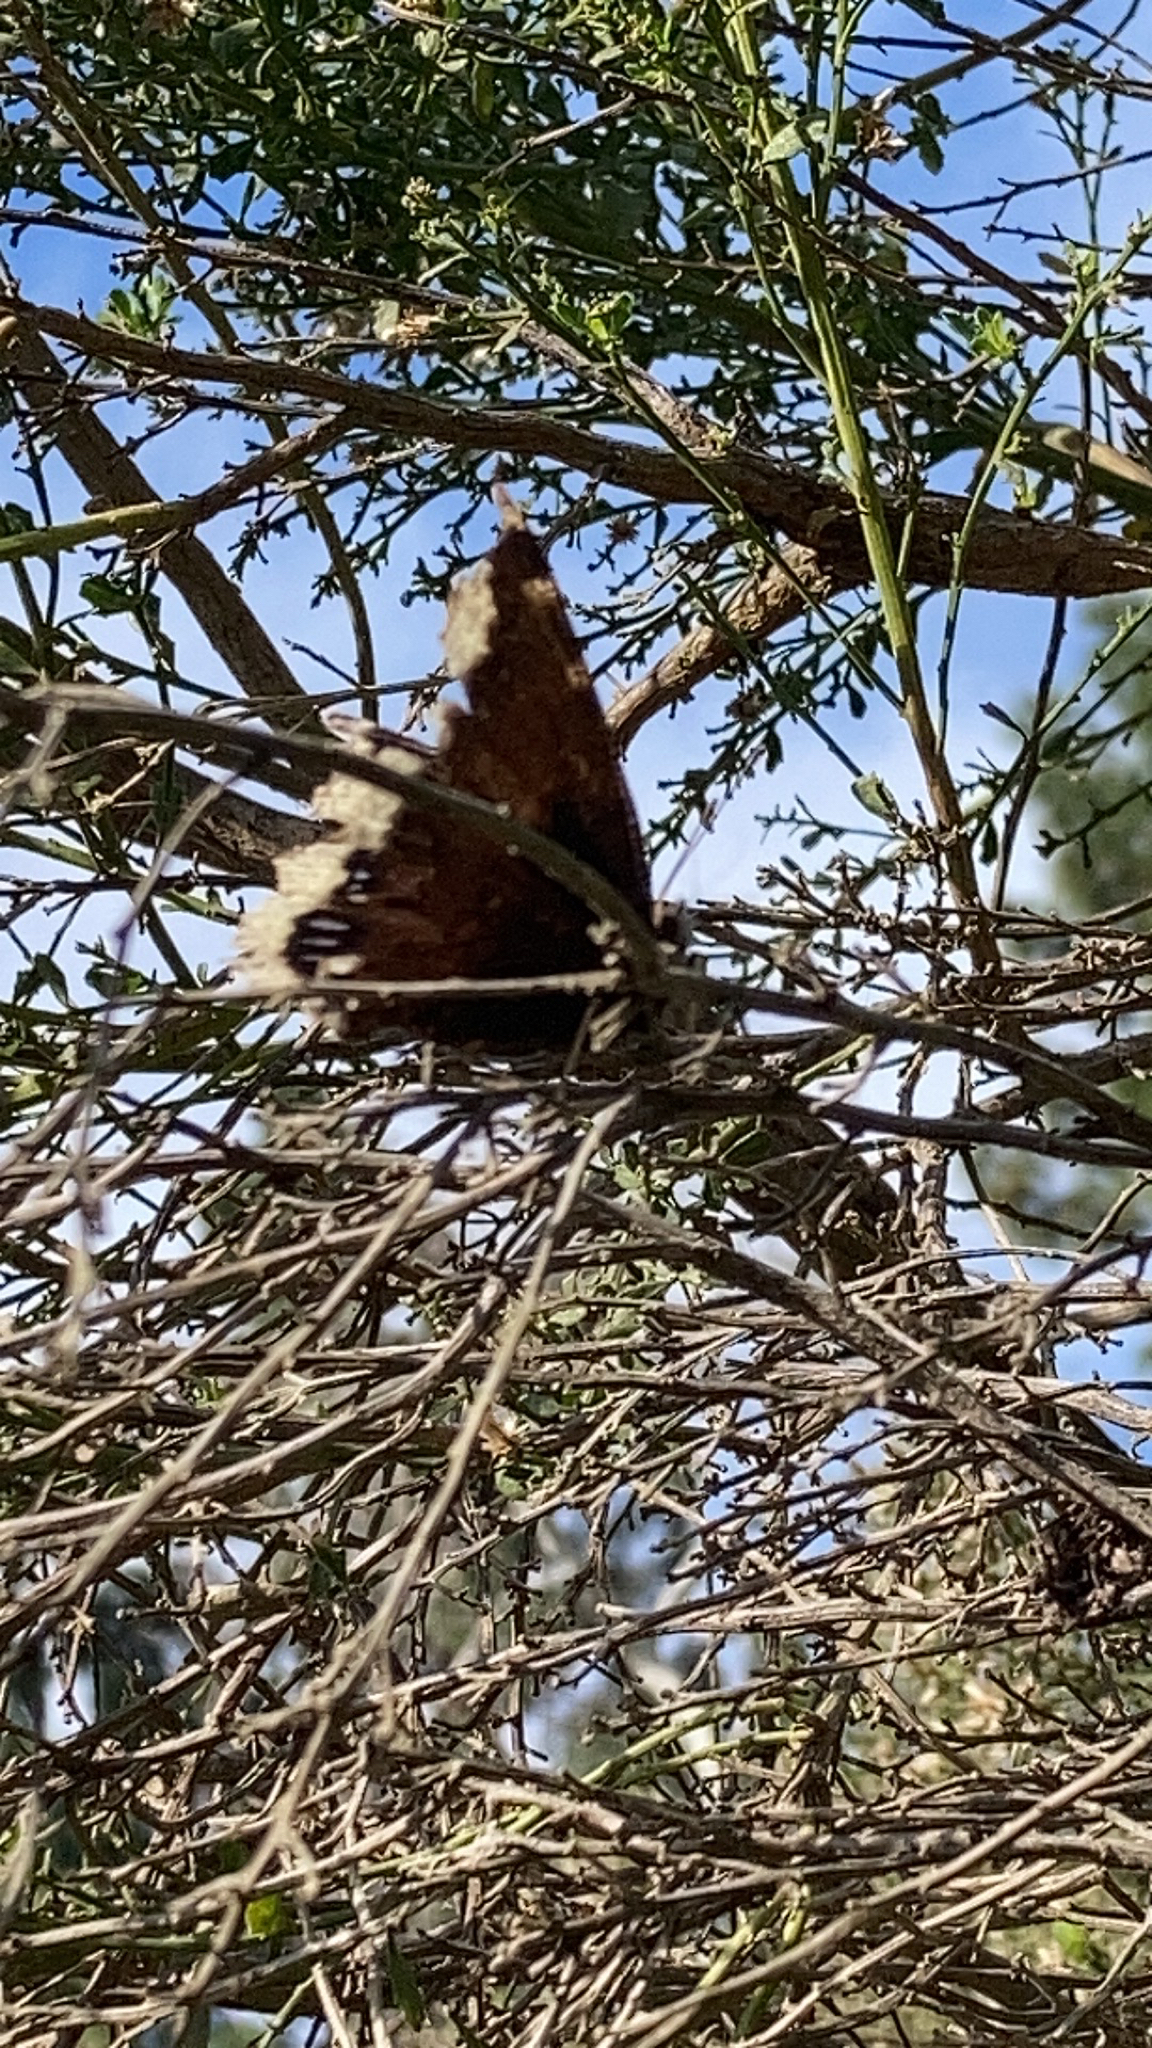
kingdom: Animalia
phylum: Arthropoda
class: Insecta
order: Lepidoptera
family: Nymphalidae
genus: Nymphalis
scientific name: Nymphalis antiopa
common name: Camberwell beauty
